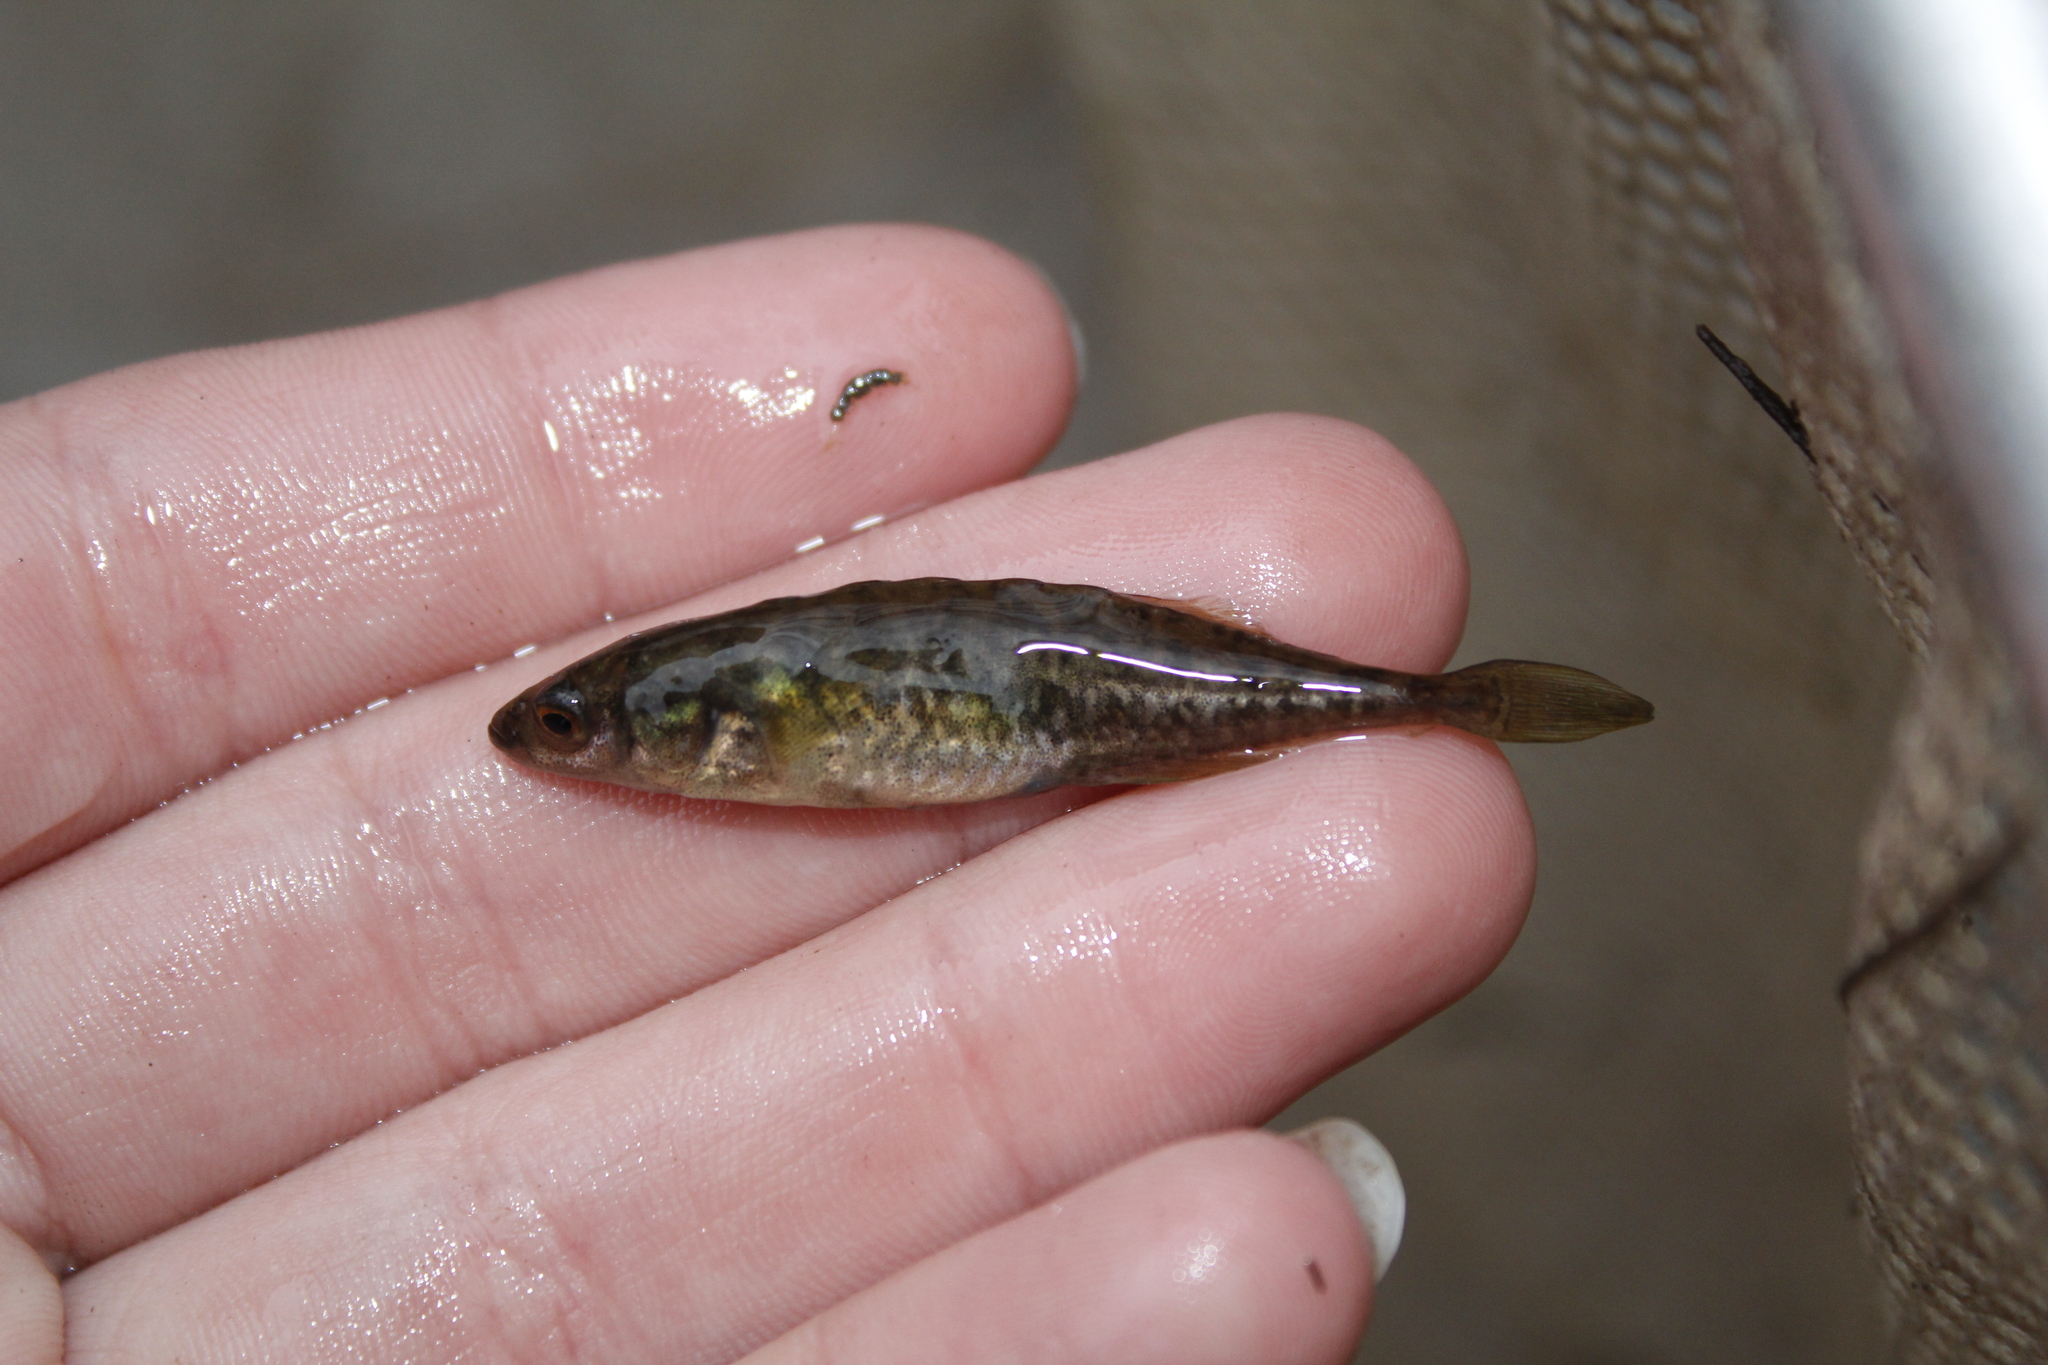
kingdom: Animalia
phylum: Chordata
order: Gasterosteiformes
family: Gasterosteidae
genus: Culaea
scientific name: Culaea inconstans
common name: Brook stickleback
